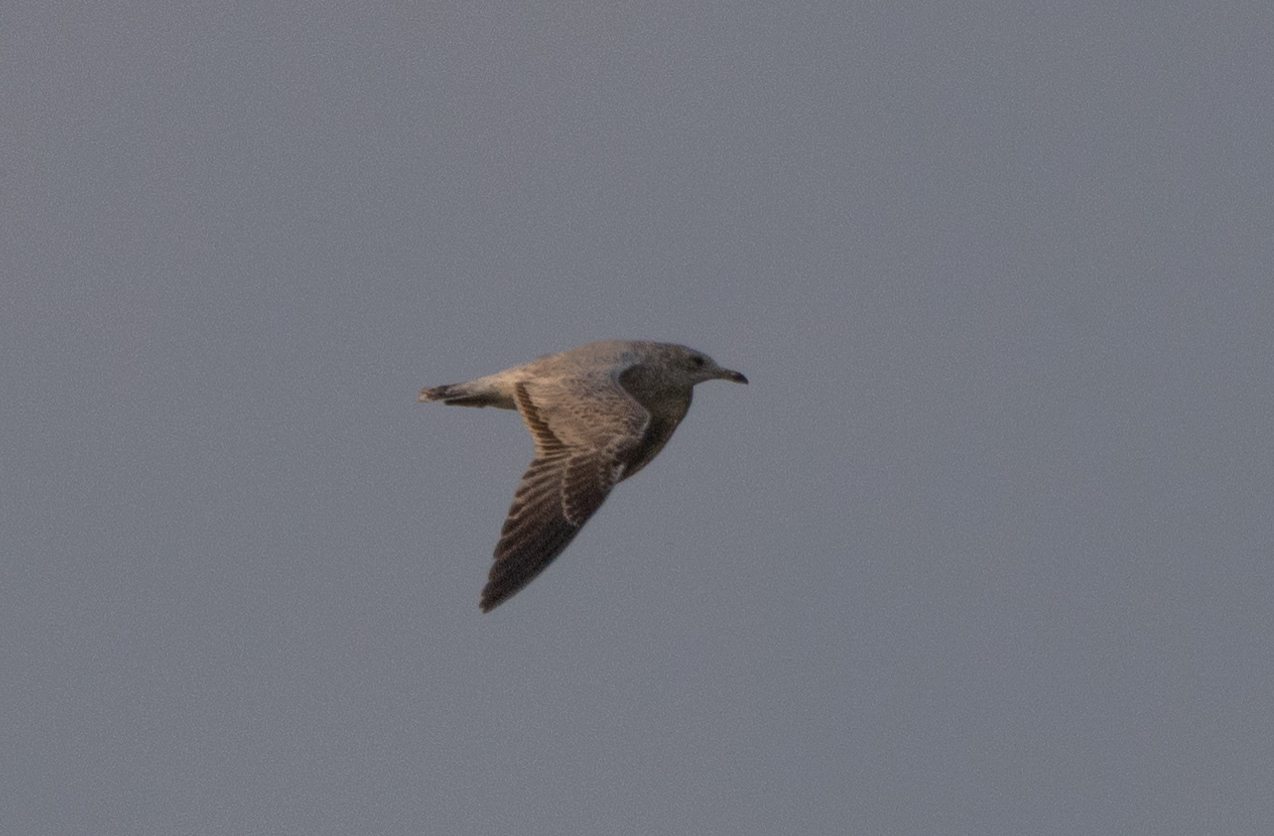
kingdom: Animalia
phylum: Chordata
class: Aves
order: Charadriiformes
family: Laridae
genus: Larus
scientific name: Larus delawarensis
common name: Ring-billed gull
